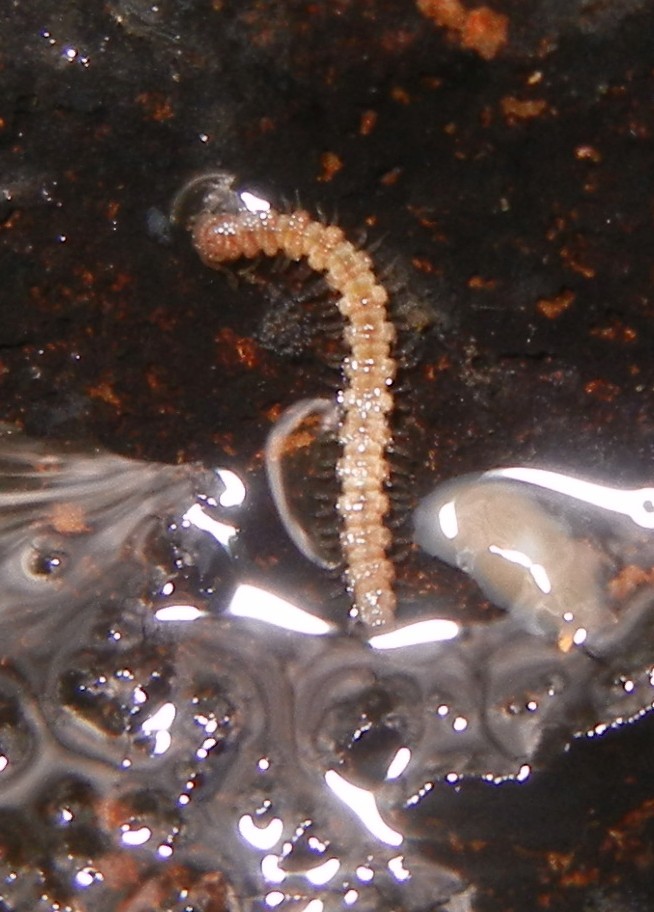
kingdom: Animalia
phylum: Arthropoda
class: Diplopoda
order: Polydesmida
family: Polydesmidae
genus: Brachydesmus
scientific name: Brachydesmus
